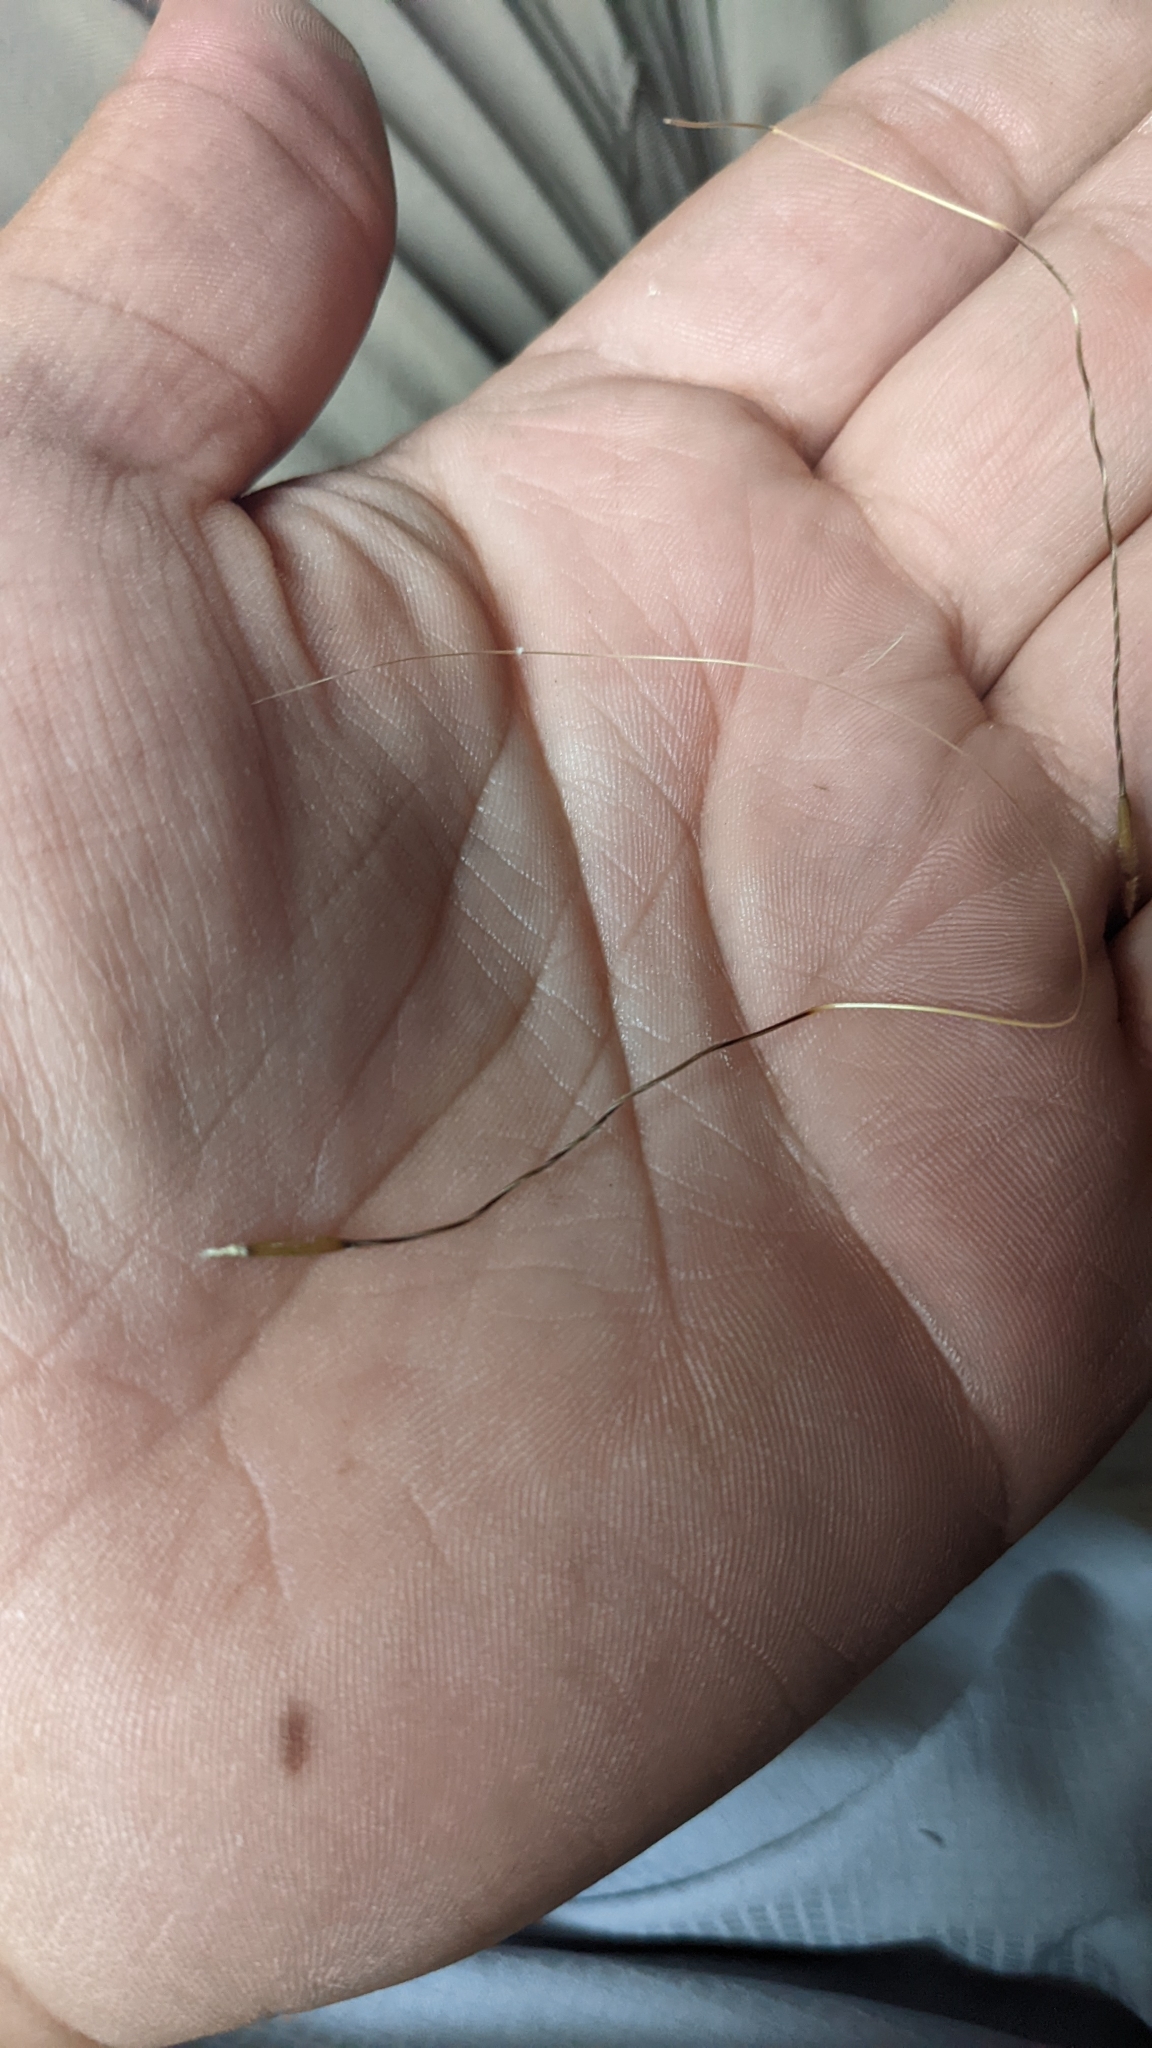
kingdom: Plantae
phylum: Tracheophyta
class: Liliopsida
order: Poales
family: Poaceae
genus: Hesperostipa
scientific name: Hesperostipa comata
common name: Needle-and-thread grass
